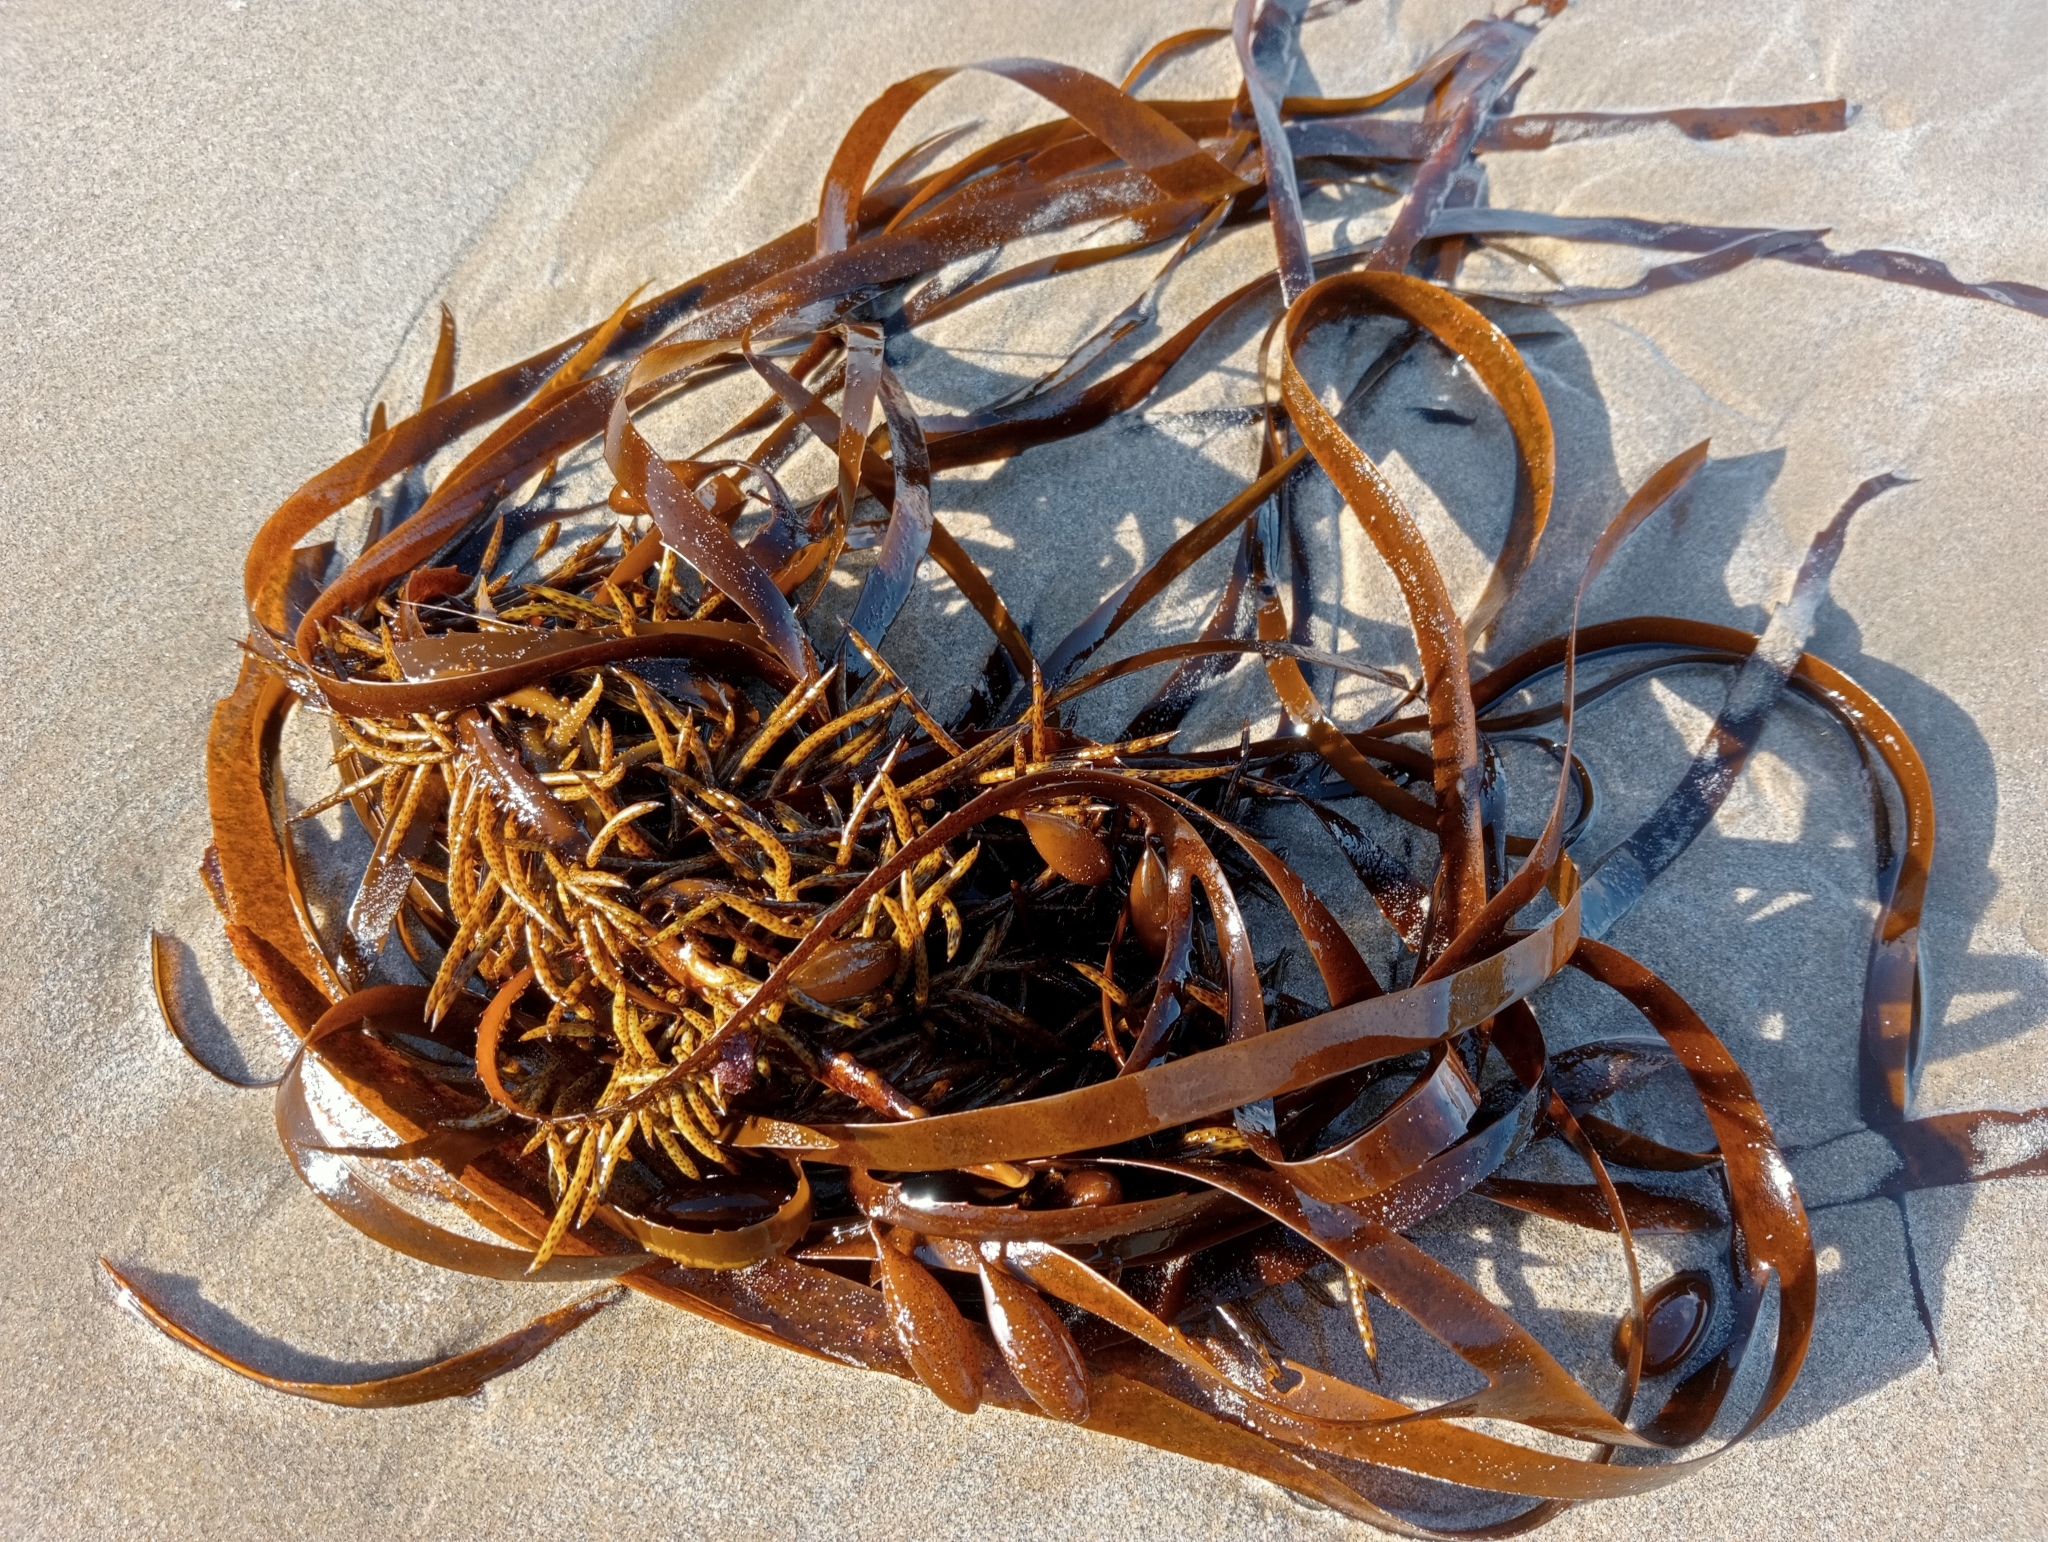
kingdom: Chromista
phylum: Ochrophyta
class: Phaeophyceae
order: Fucales
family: Seirococcaceae
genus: Marginariella
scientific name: Marginariella boryana
